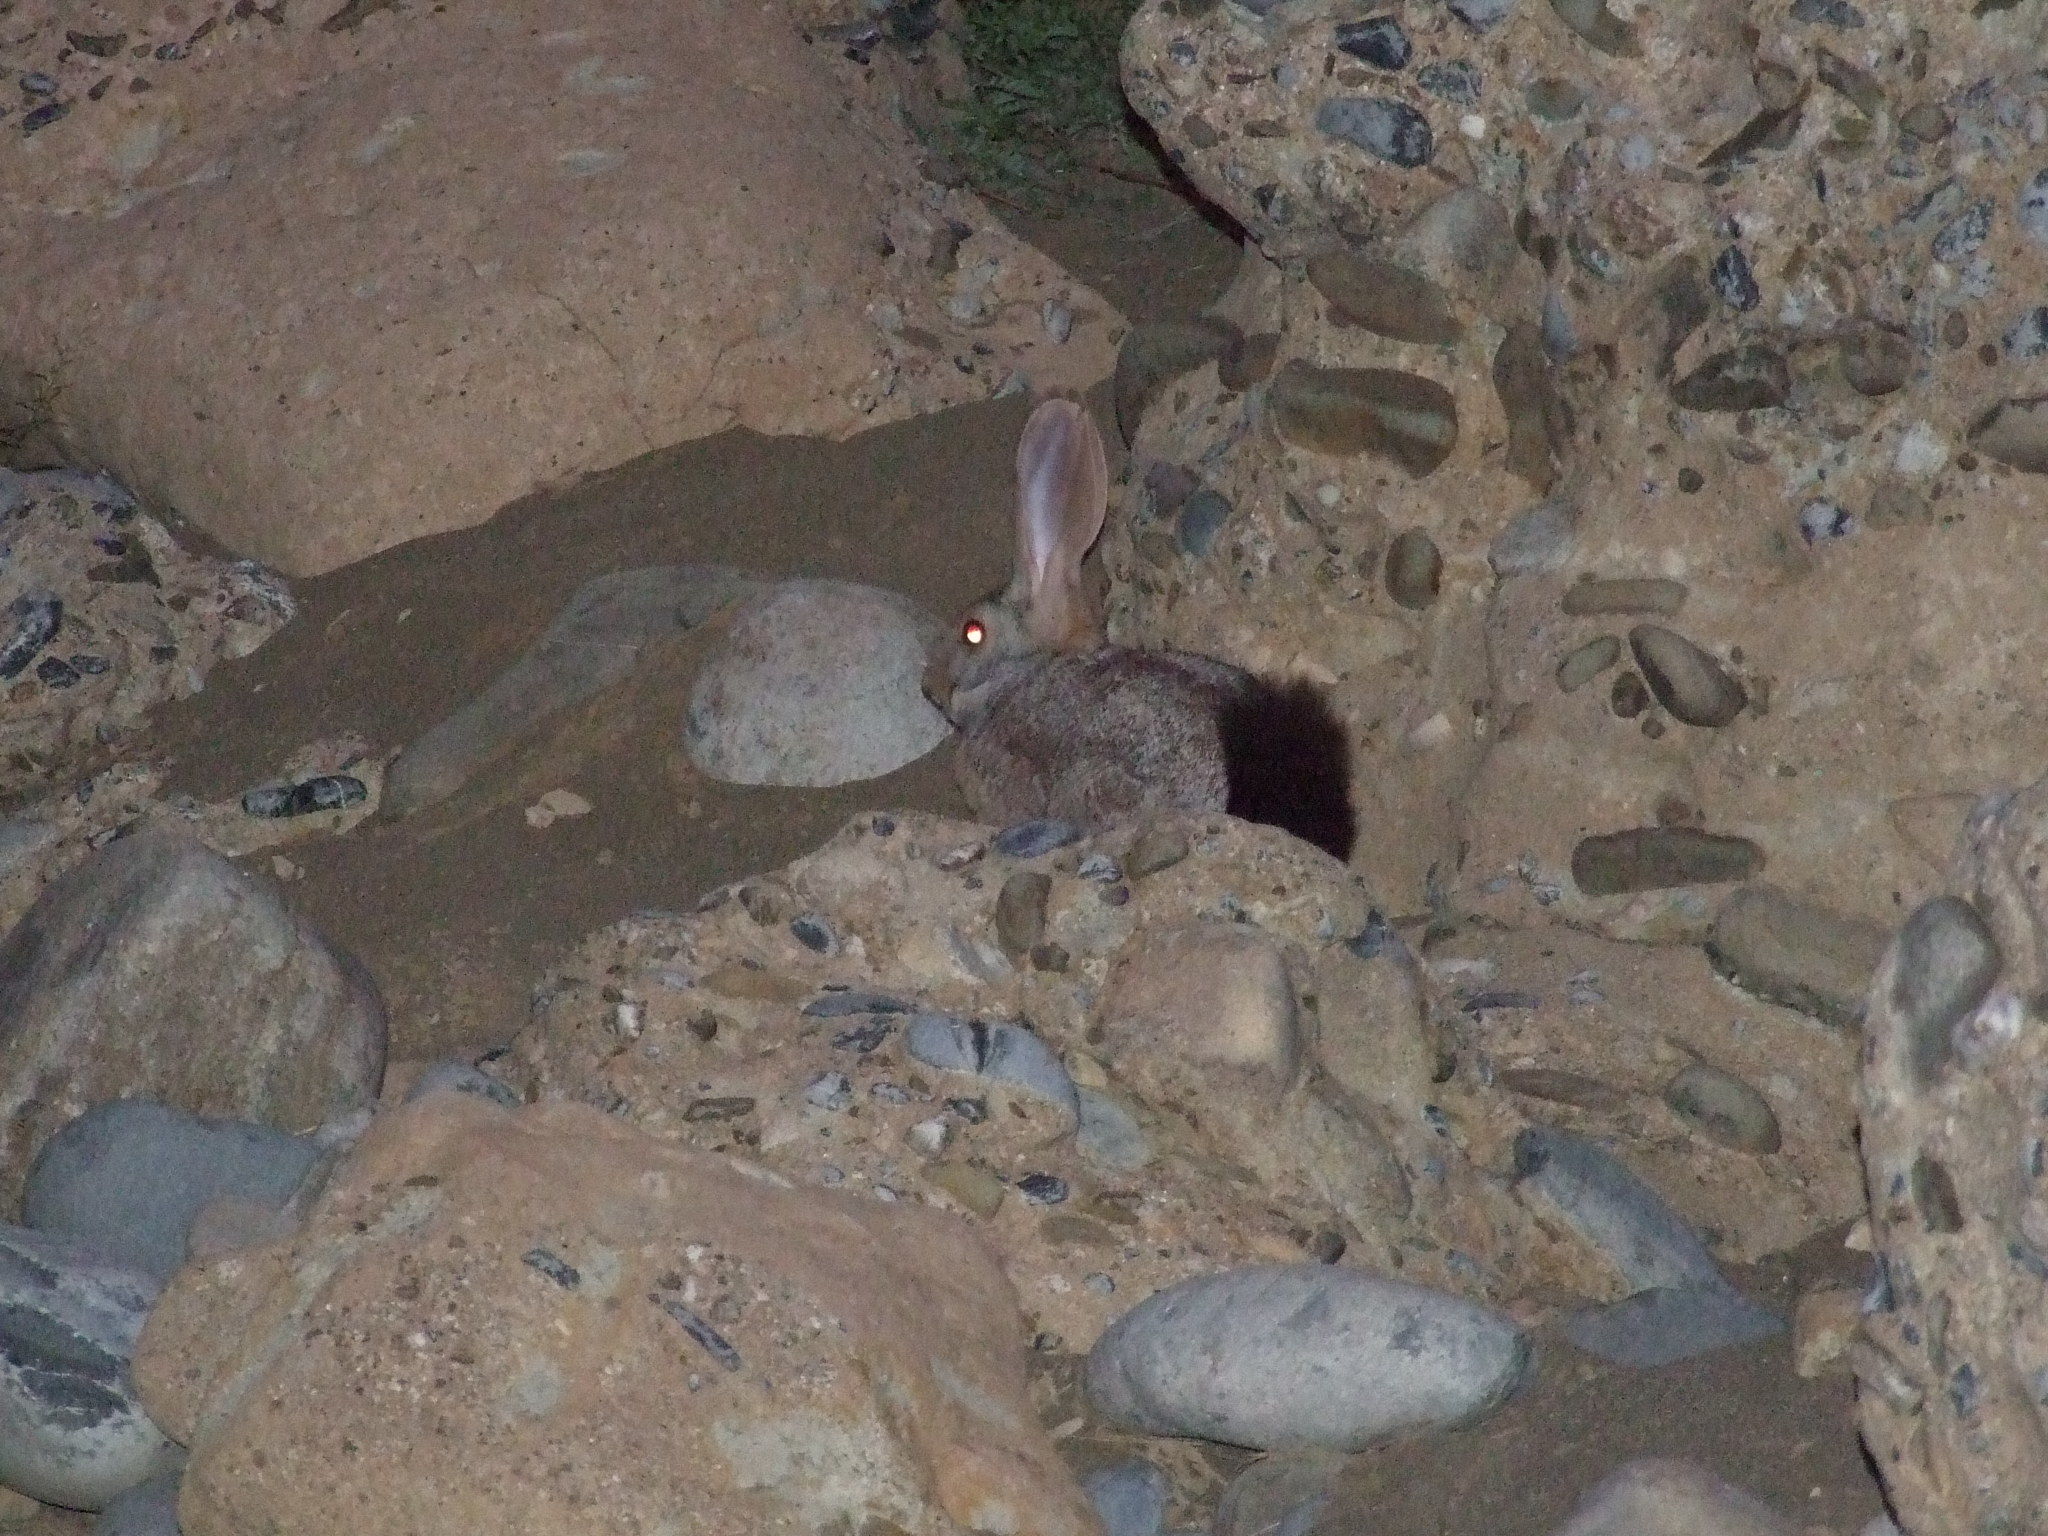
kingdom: Animalia
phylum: Chordata
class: Mammalia
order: Lagomorpha
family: Leporidae
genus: Pronolagus
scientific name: Pronolagus randensis
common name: Jameson's red rock hare
